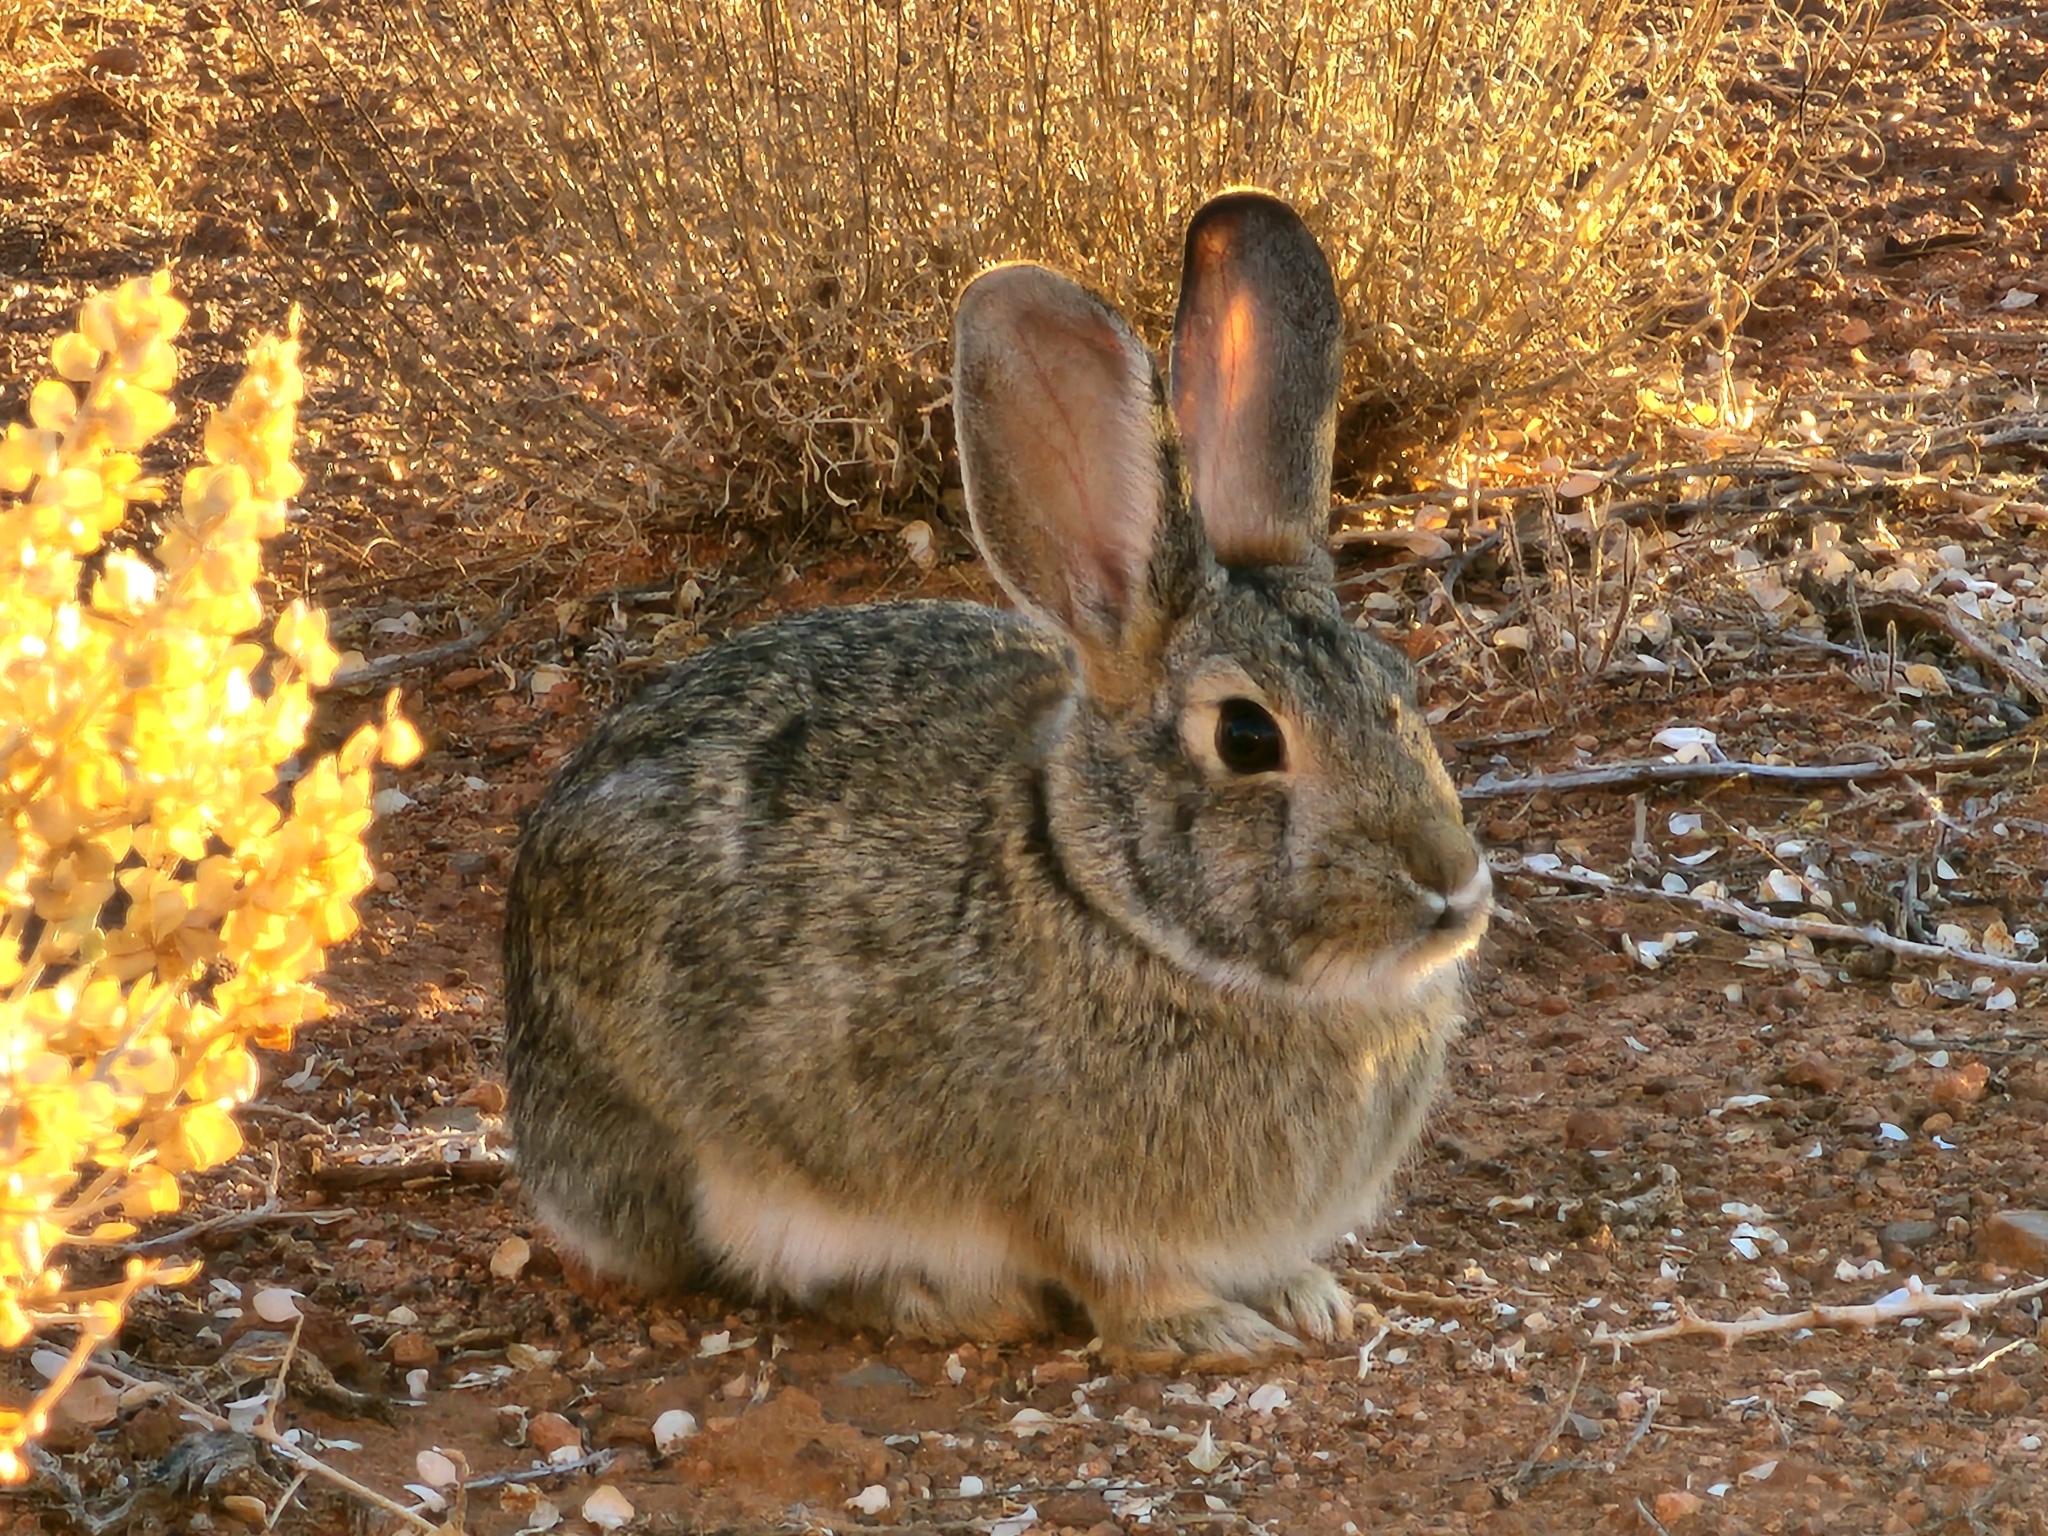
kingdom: Animalia
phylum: Chordata
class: Mammalia
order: Lagomorpha
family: Leporidae
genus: Sylvilagus
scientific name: Sylvilagus audubonii
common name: Desert cottontail
